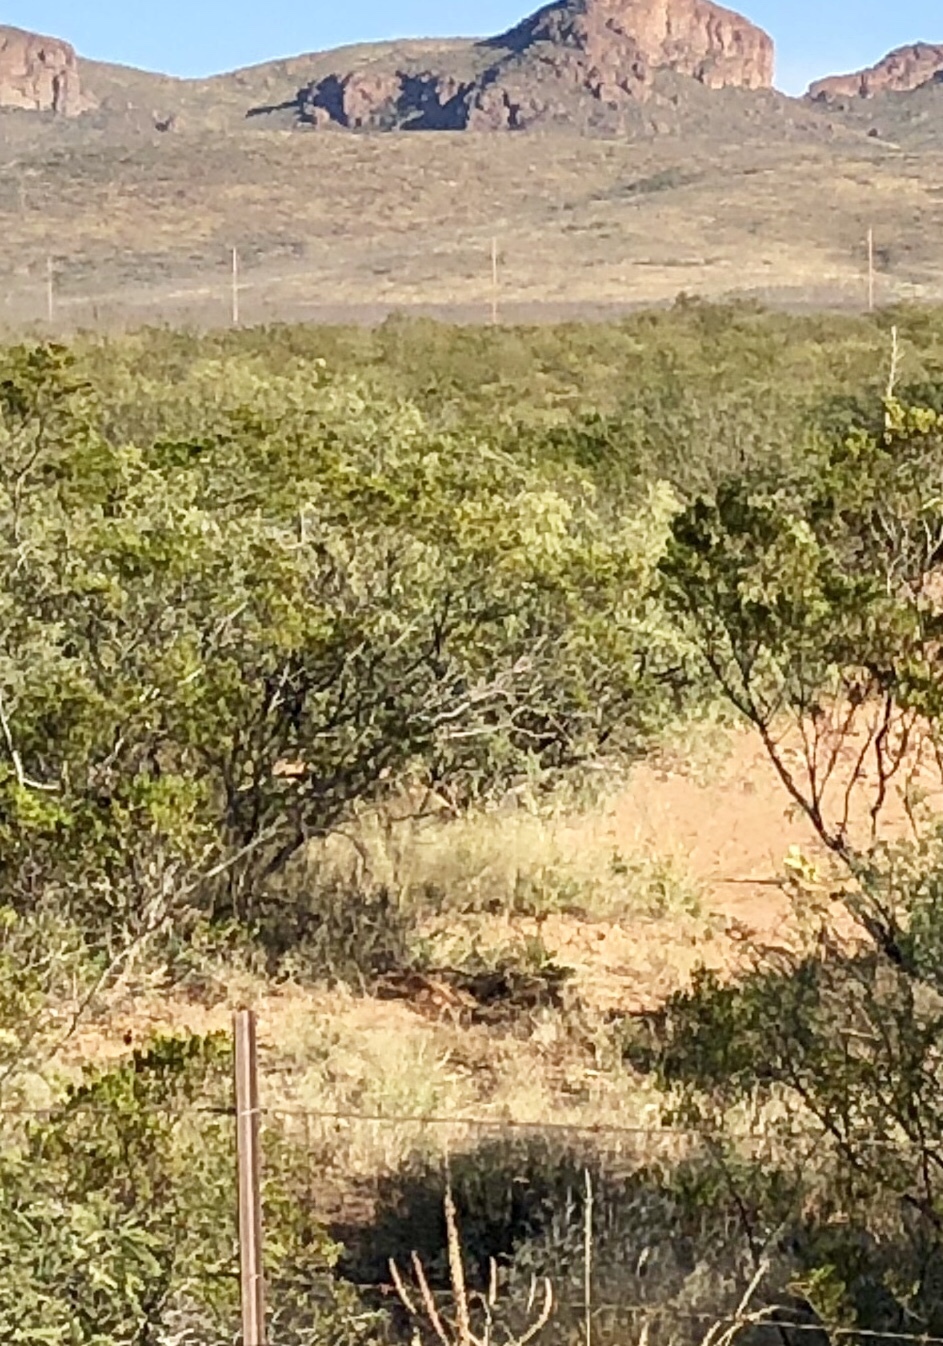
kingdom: Plantae
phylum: Tracheophyta
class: Magnoliopsida
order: Zygophyllales
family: Zygophyllaceae
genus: Larrea
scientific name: Larrea tridentata
